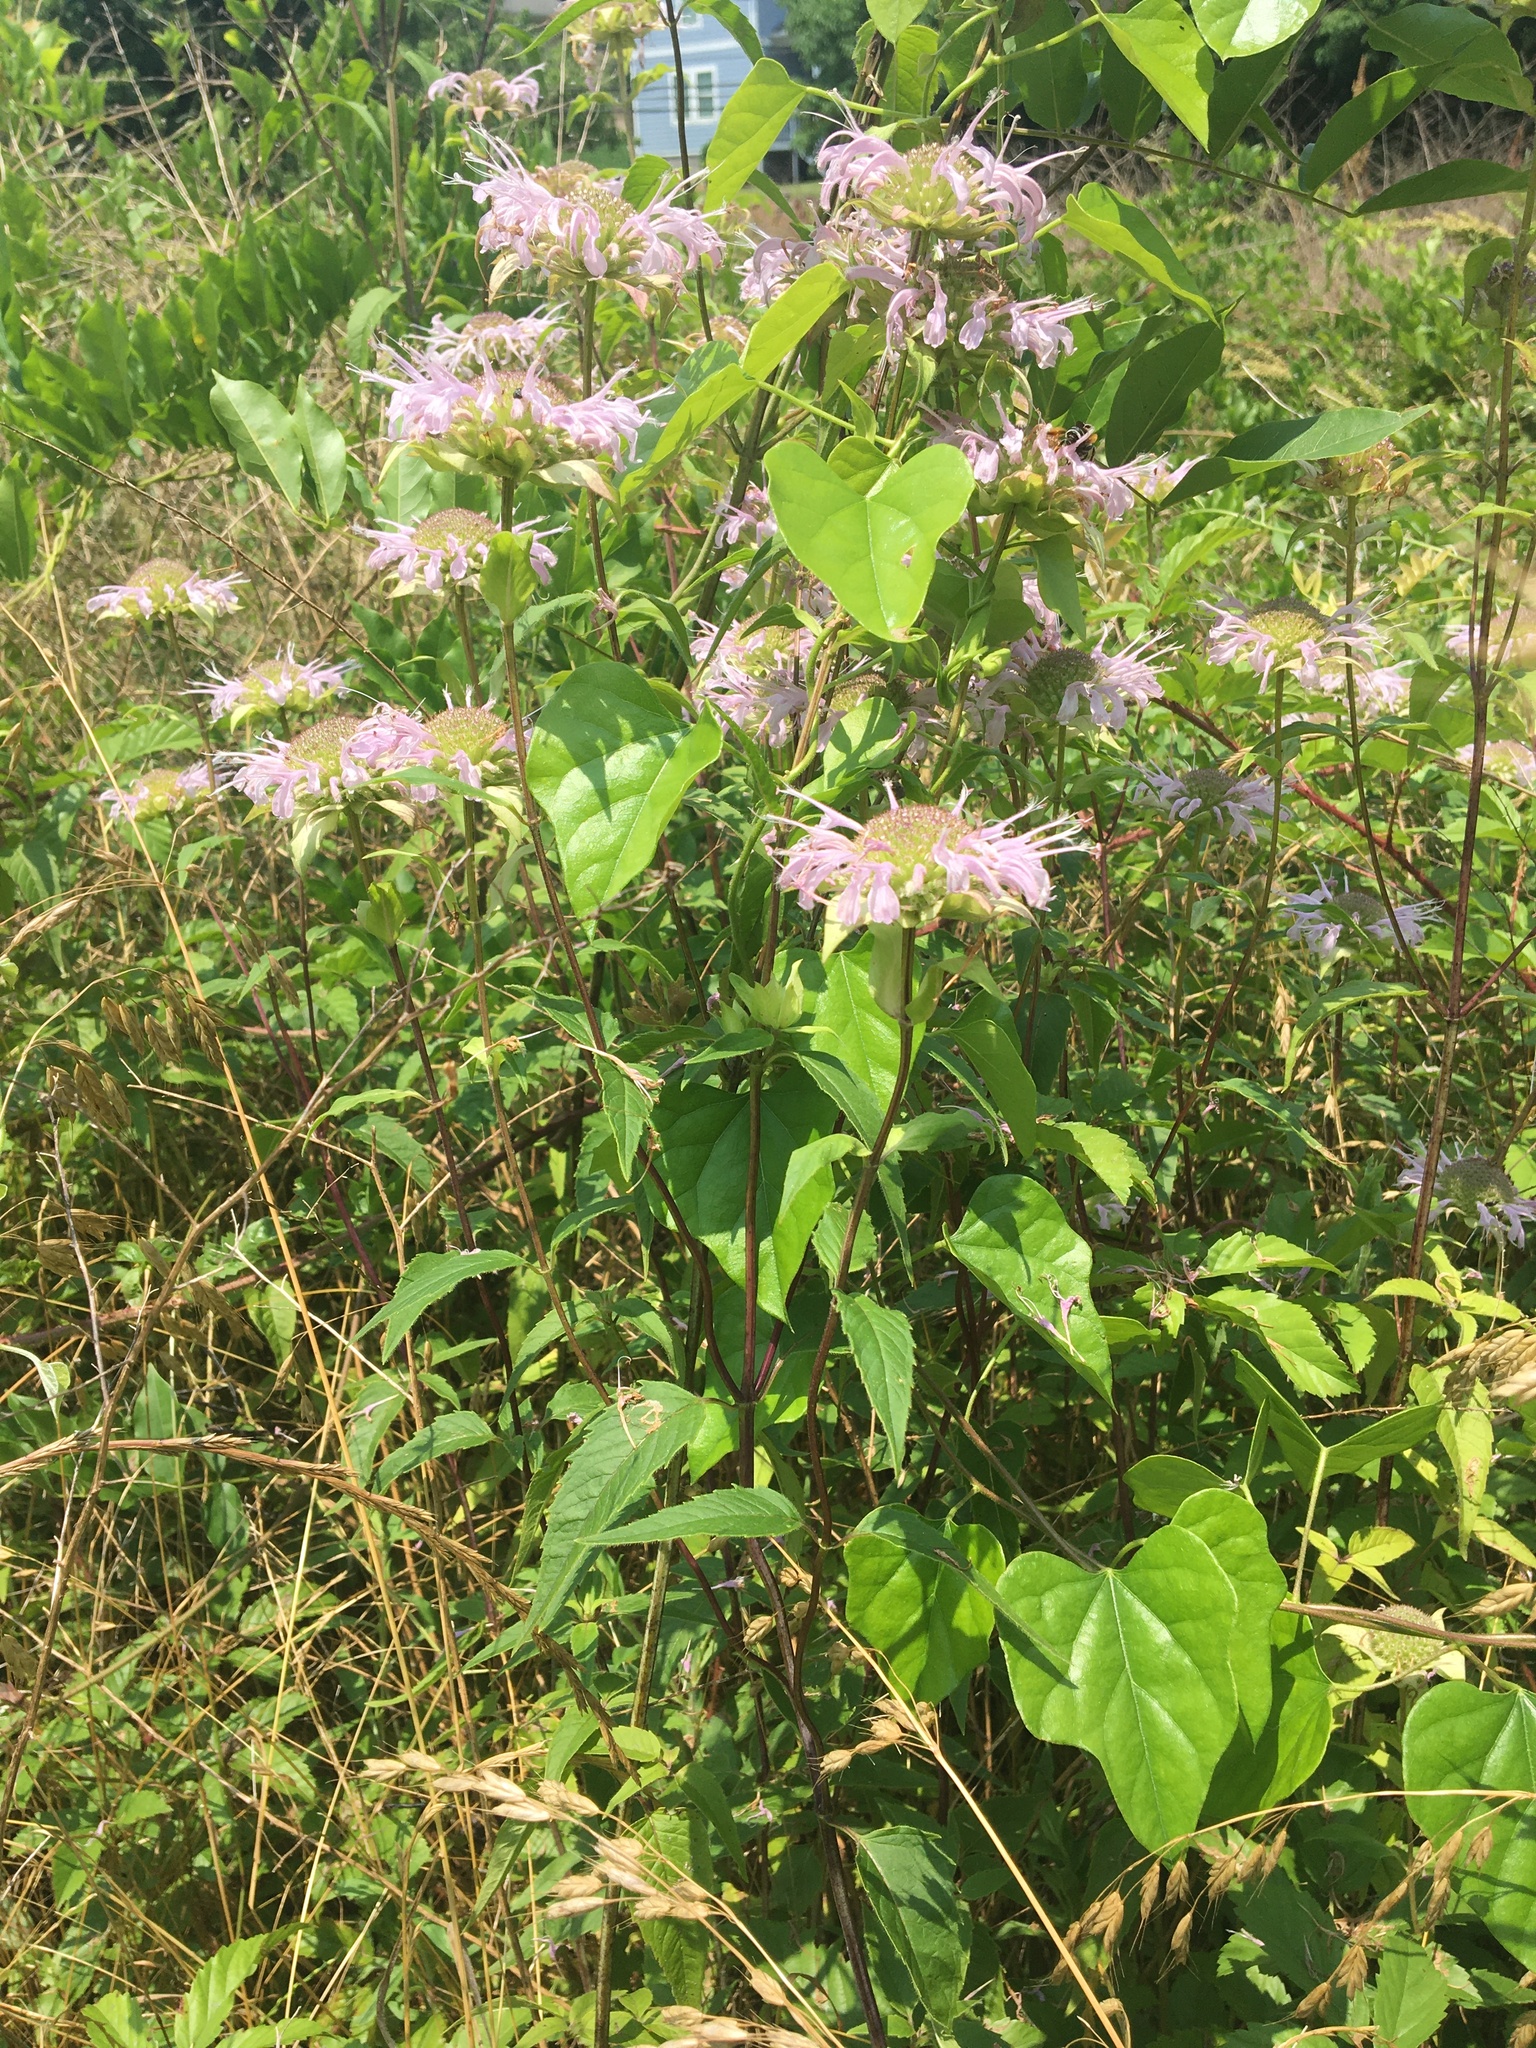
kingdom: Plantae
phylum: Tracheophyta
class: Magnoliopsida
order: Lamiales
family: Lamiaceae
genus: Monarda
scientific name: Monarda fistulosa
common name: Purple beebalm
